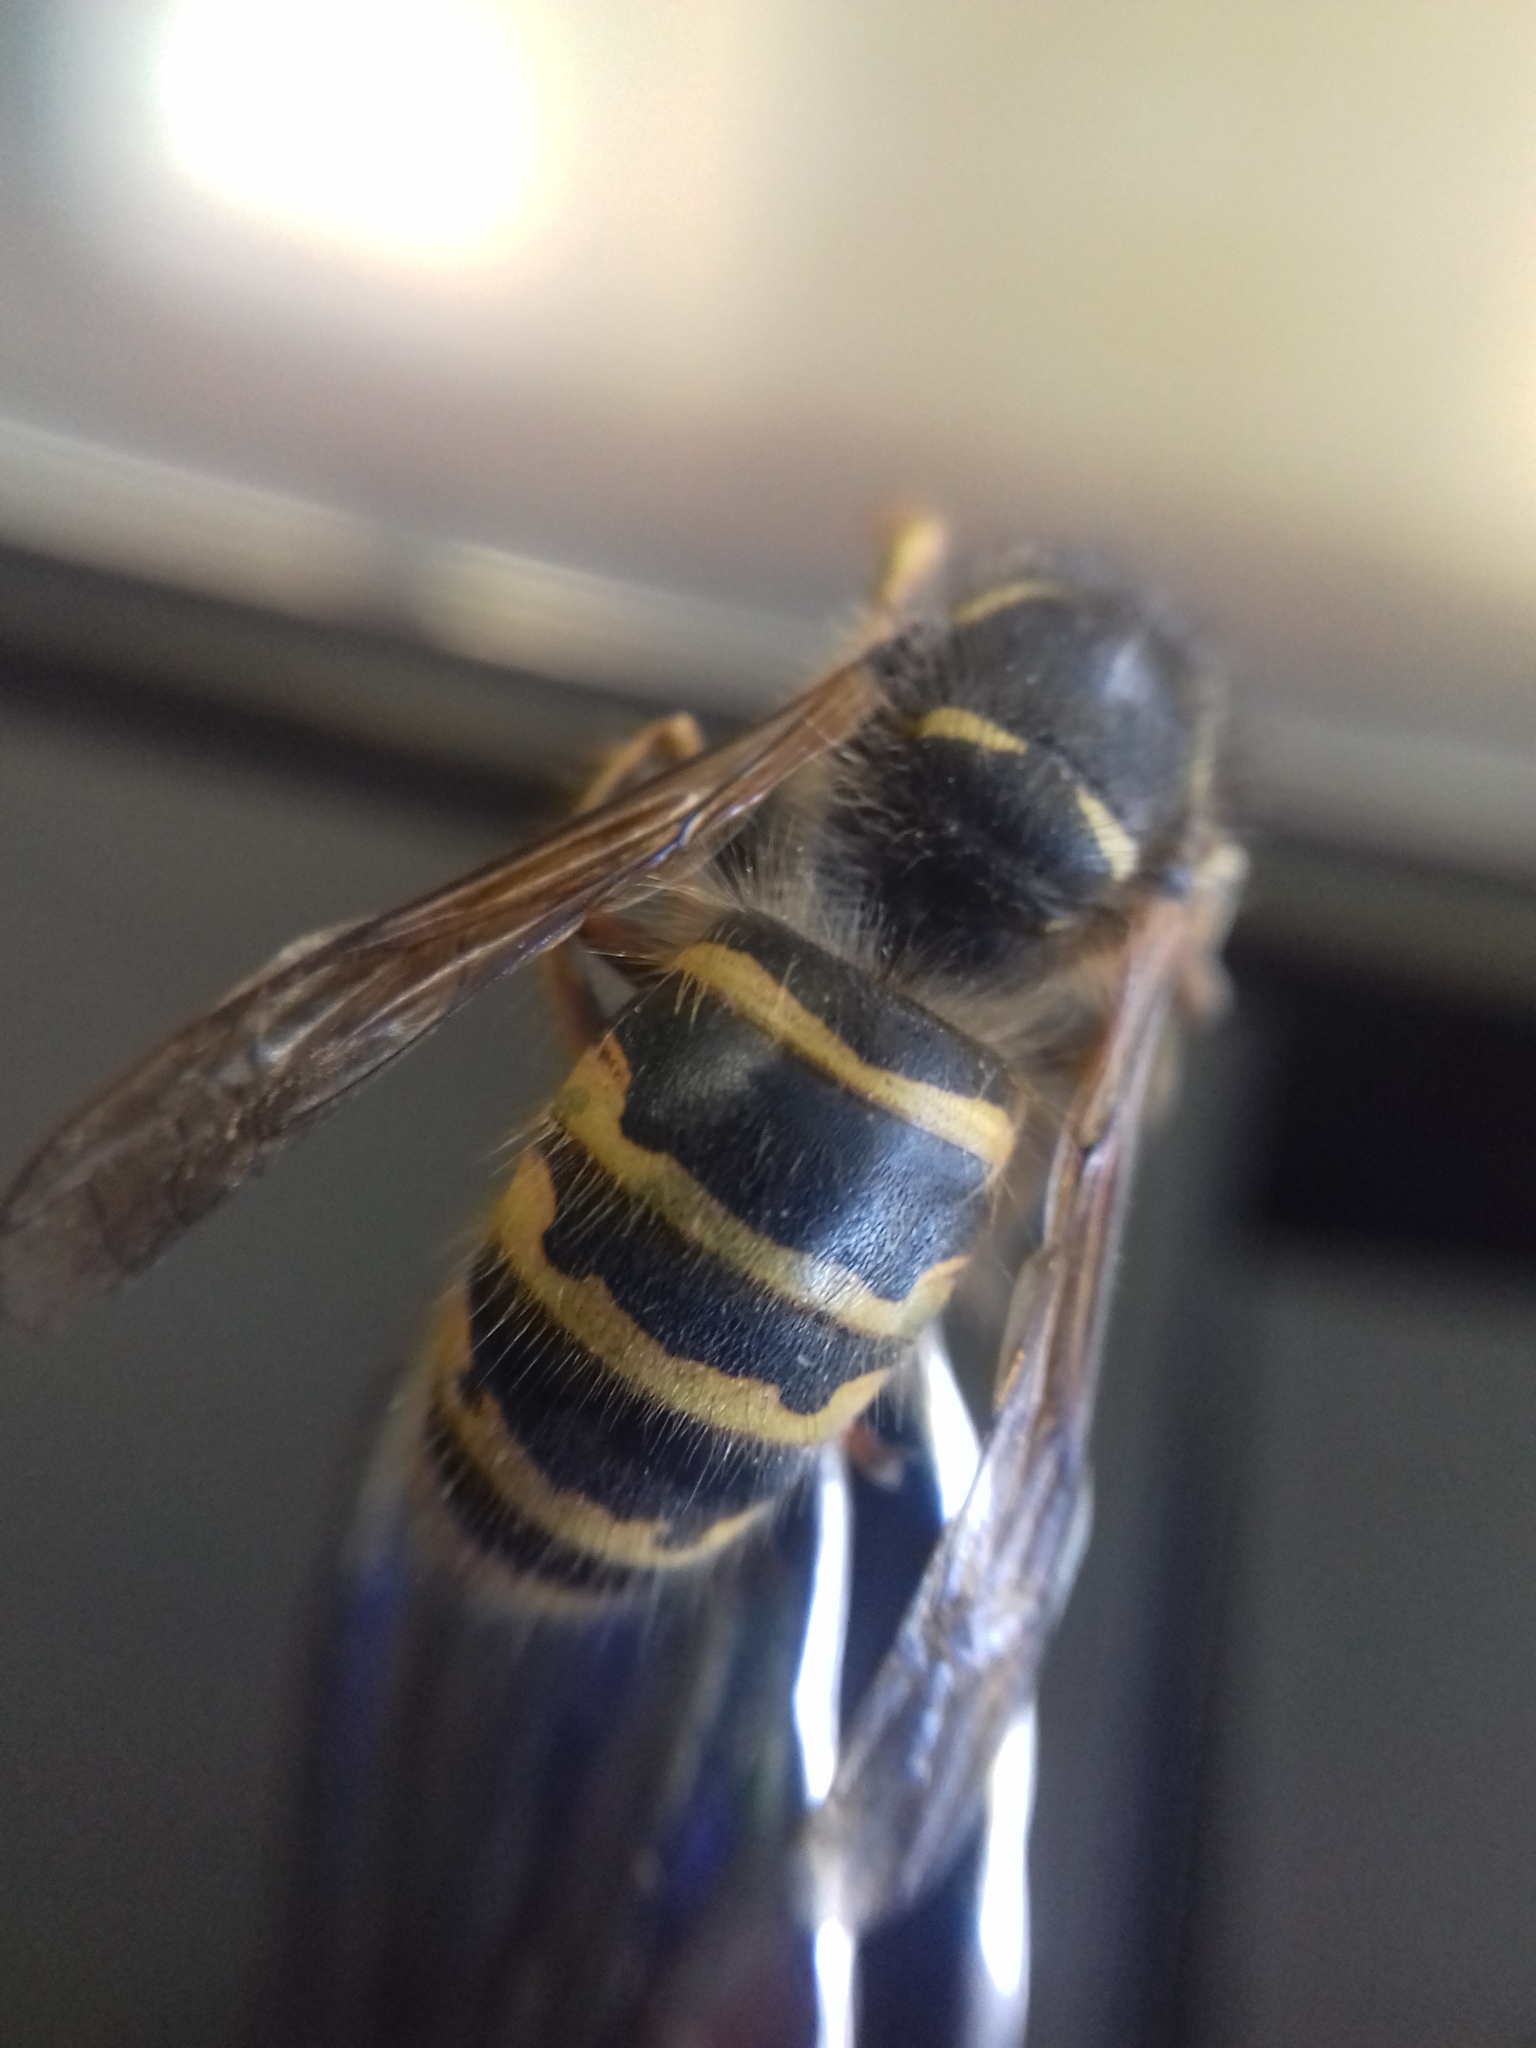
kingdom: Animalia
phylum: Arthropoda
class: Insecta
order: Hymenoptera
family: Vespidae
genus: Dolichovespula
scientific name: Dolichovespula saxonica
